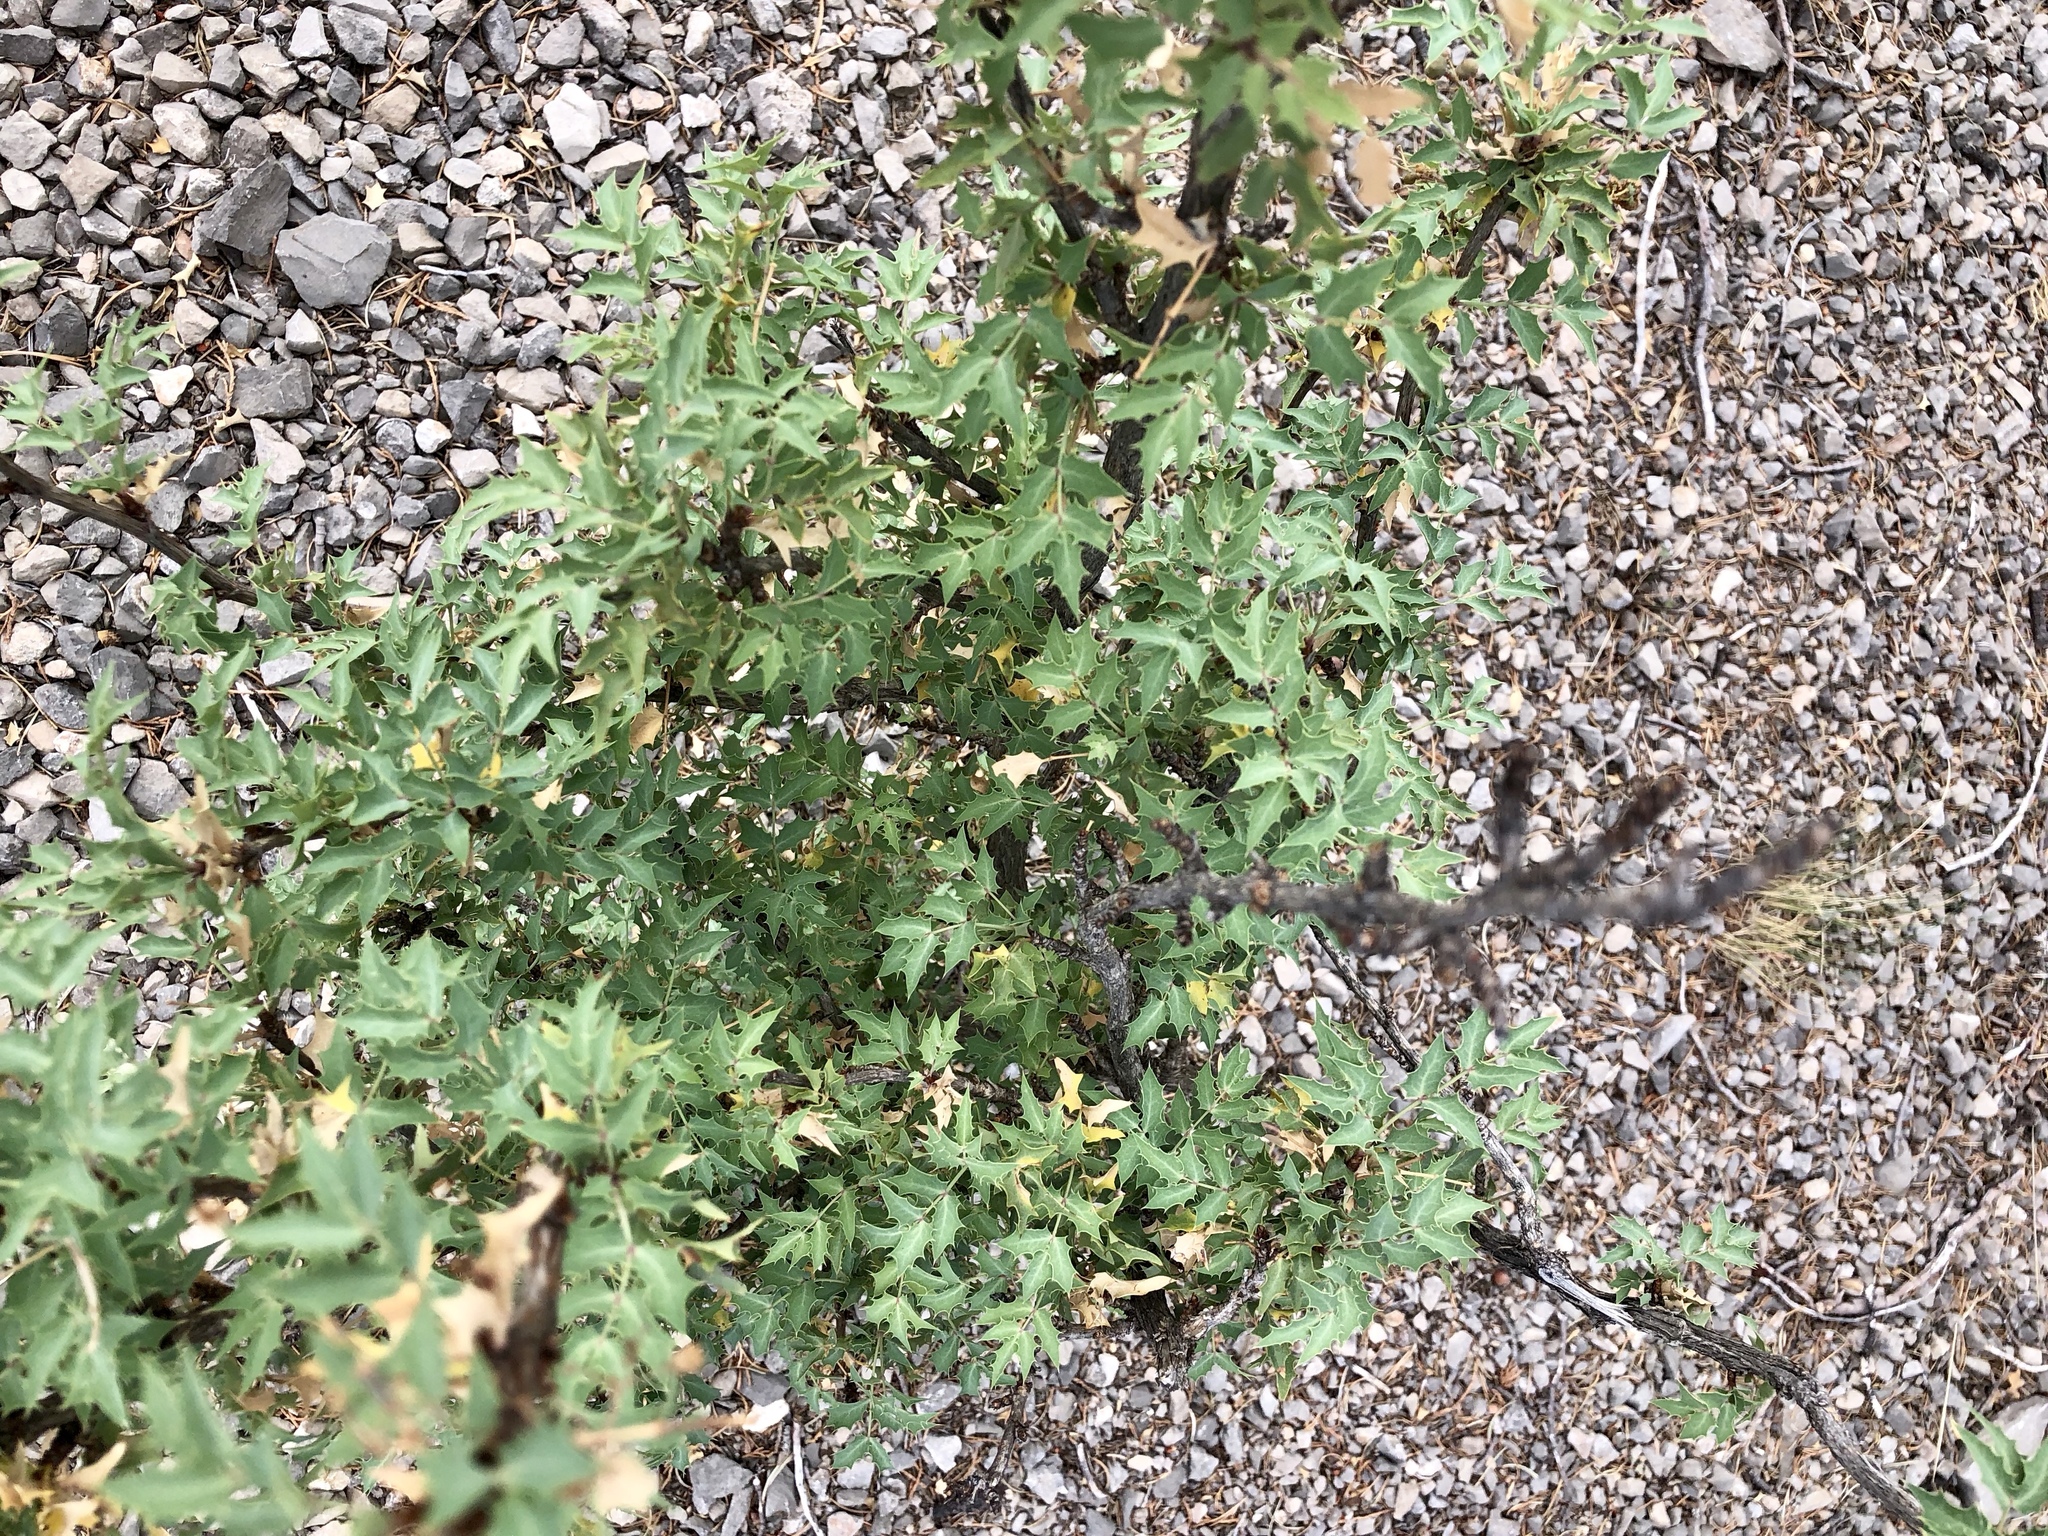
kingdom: Plantae
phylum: Tracheophyta
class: Magnoliopsida
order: Ranunculales
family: Berberidaceae
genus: Alloberberis
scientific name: Alloberberis haematocarpa
